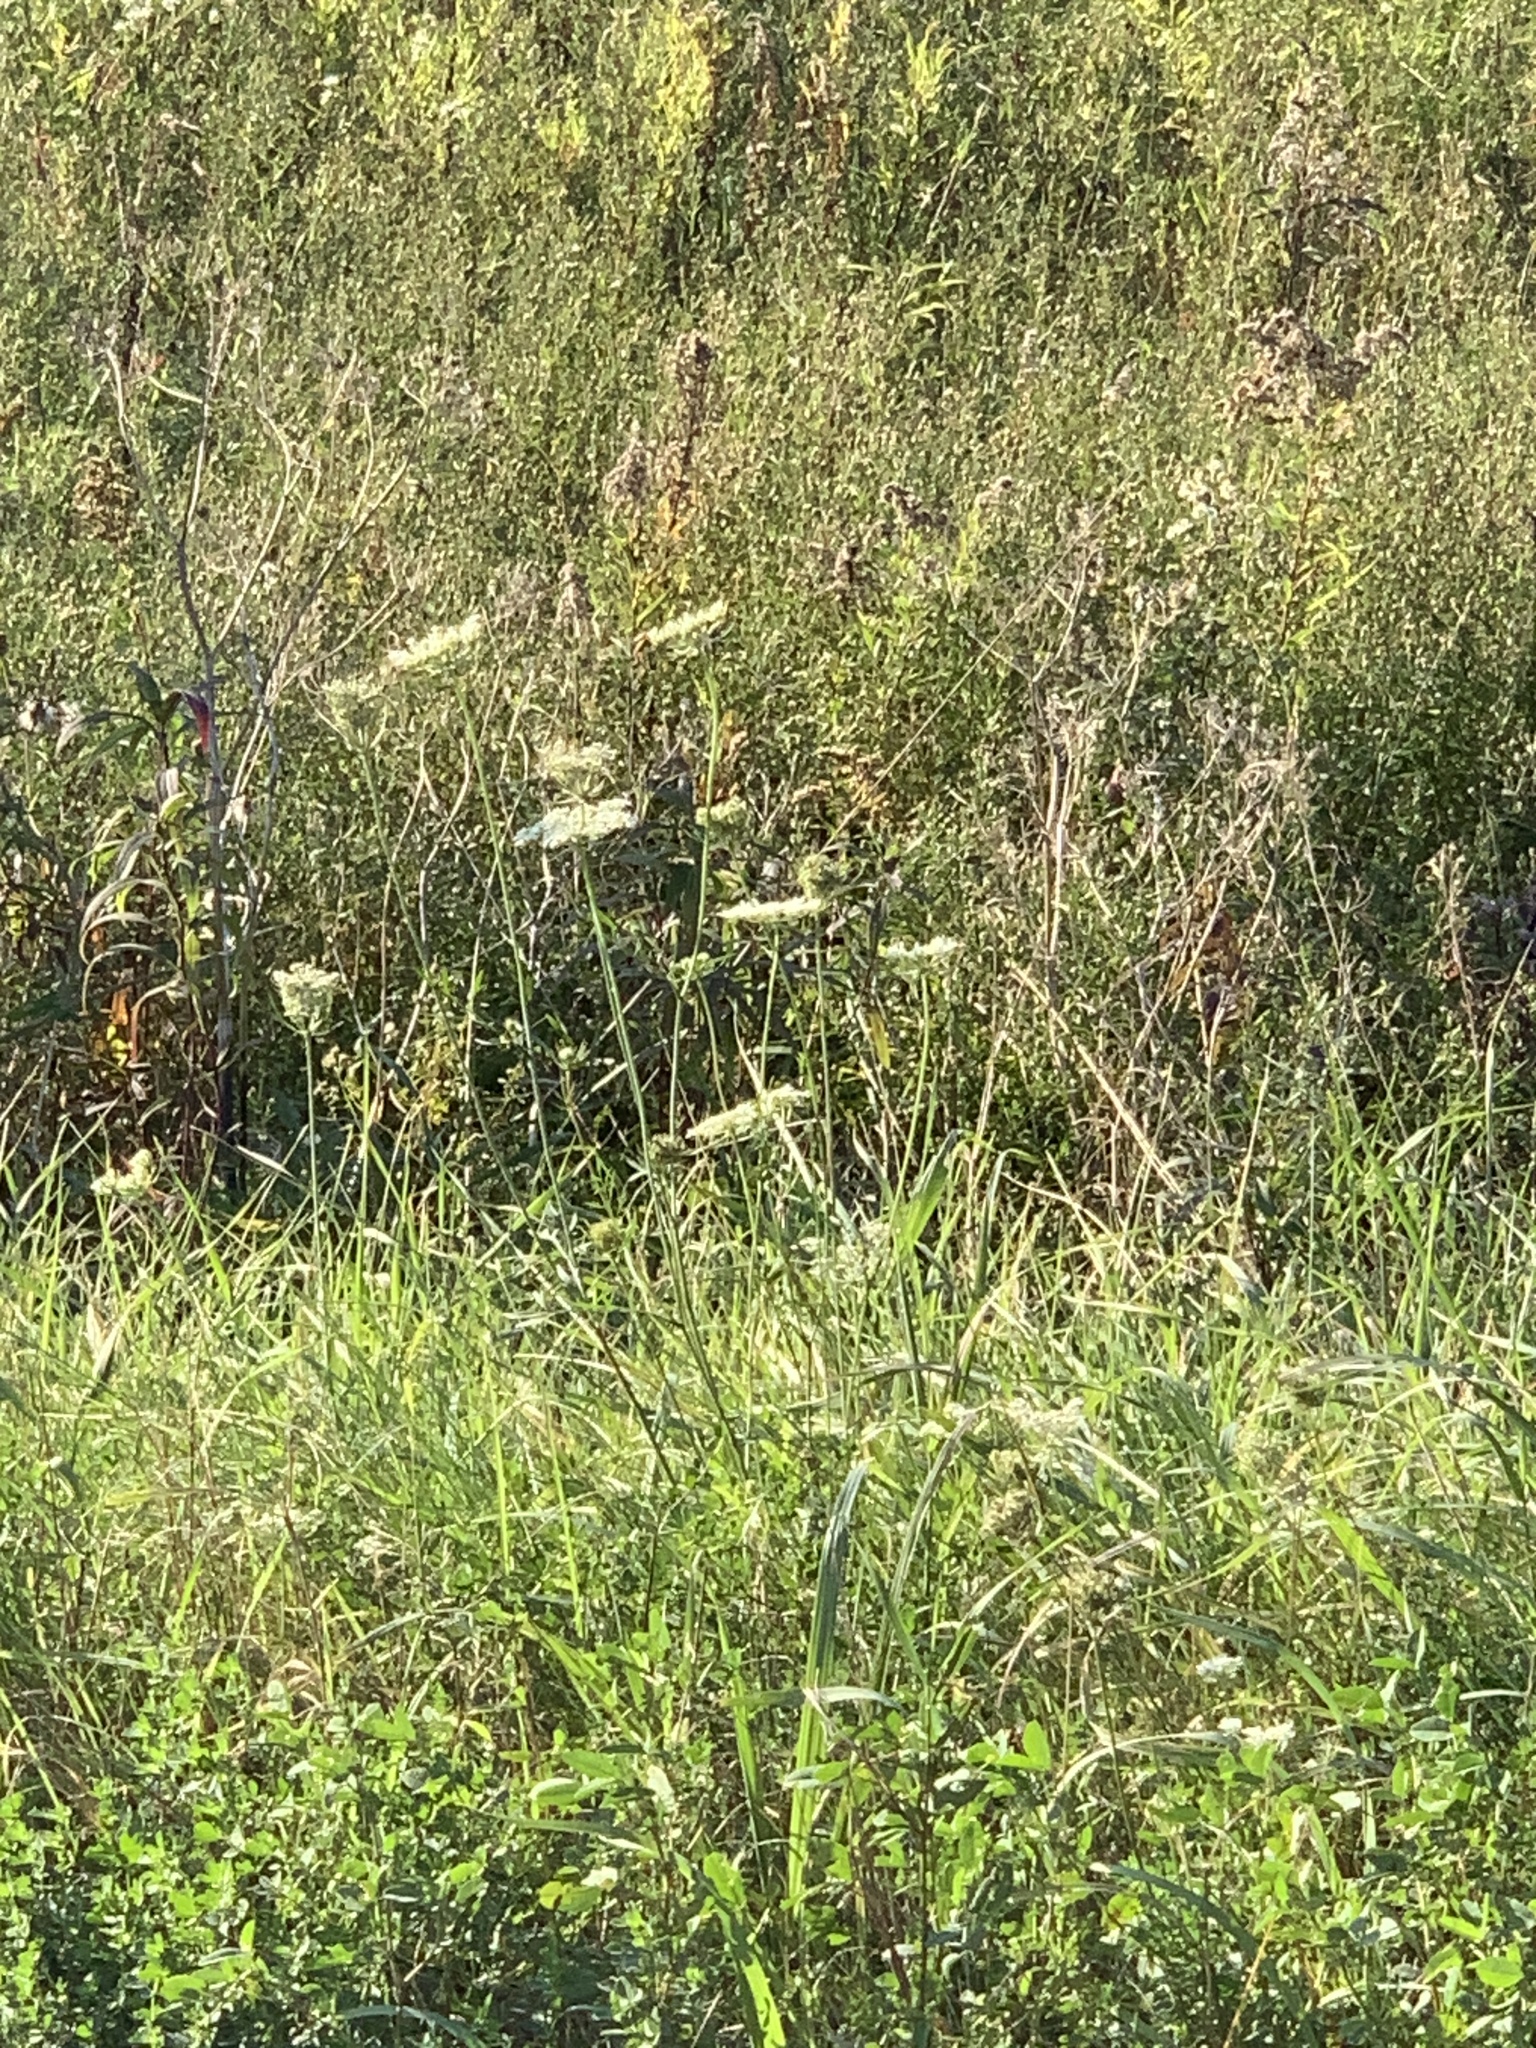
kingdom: Plantae
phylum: Tracheophyta
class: Magnoliopsida
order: Apiales
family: Apiaceae
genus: Daucus
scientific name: Daucus carota
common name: Wild carrot
